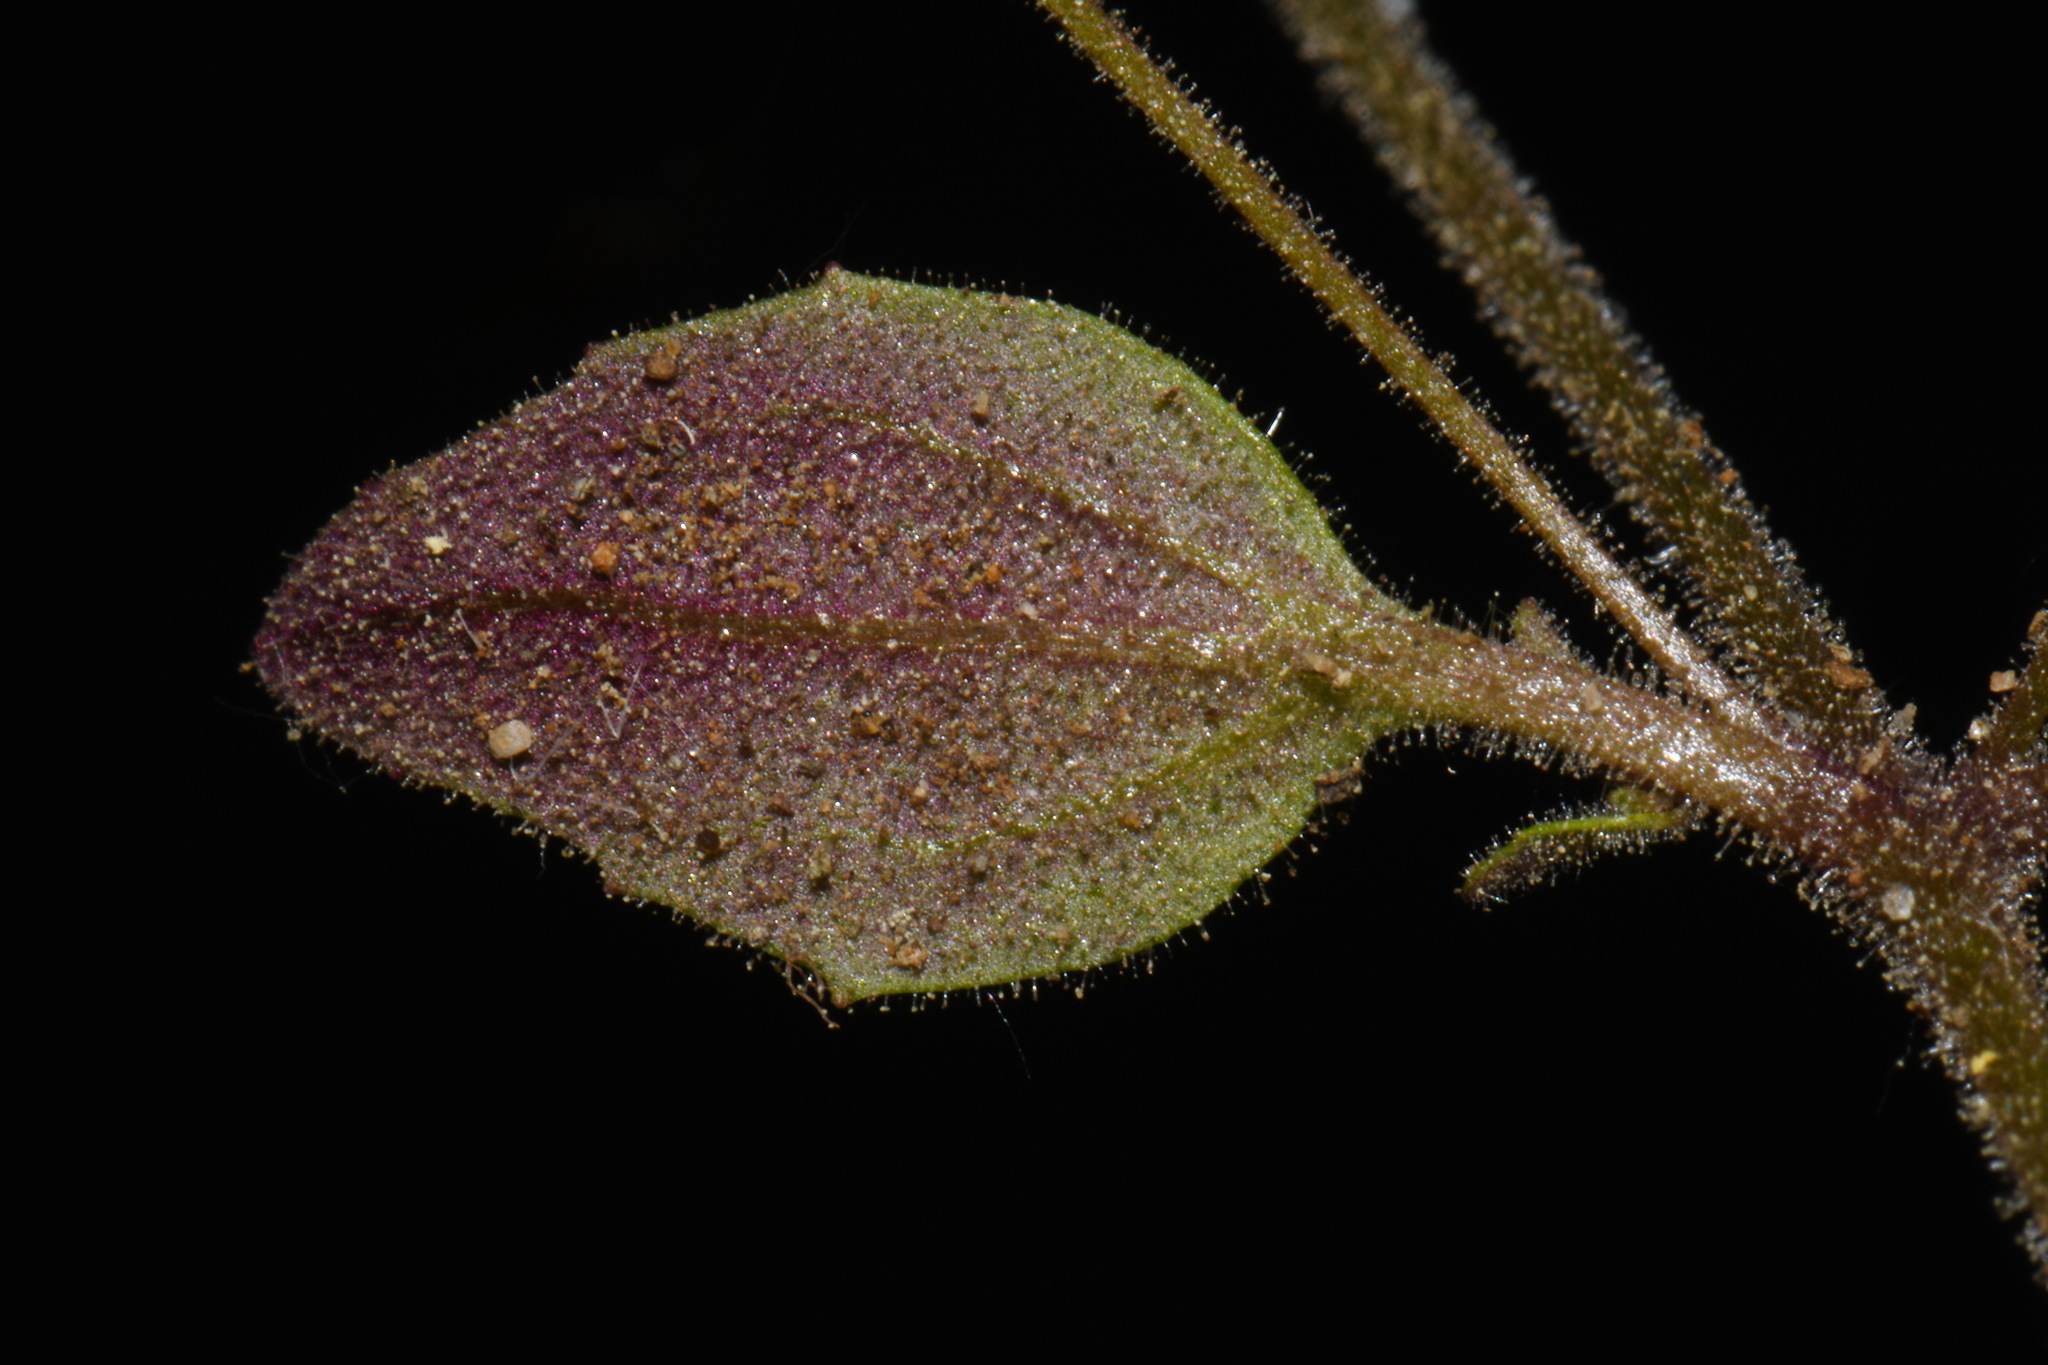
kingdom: Plantae
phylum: Tracheophyta
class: Magnoliopsida
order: Lamiales
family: Phrymaceae
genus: Erythranthe
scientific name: Erythranthe washingtonensis
